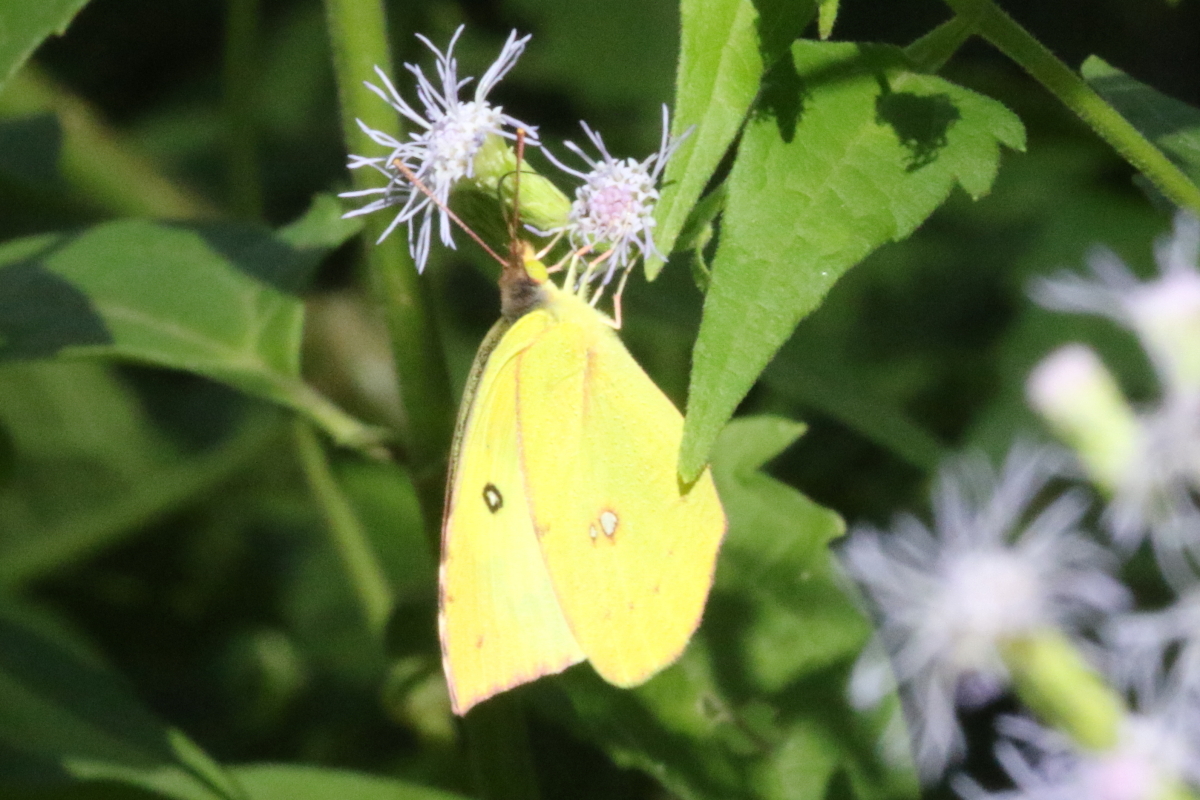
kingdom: Animalia
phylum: Arthropoda
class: Insecta
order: Lepidoptera
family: Pieridae
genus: Zerene
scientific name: Zerene cesonia
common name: Southern dogface
